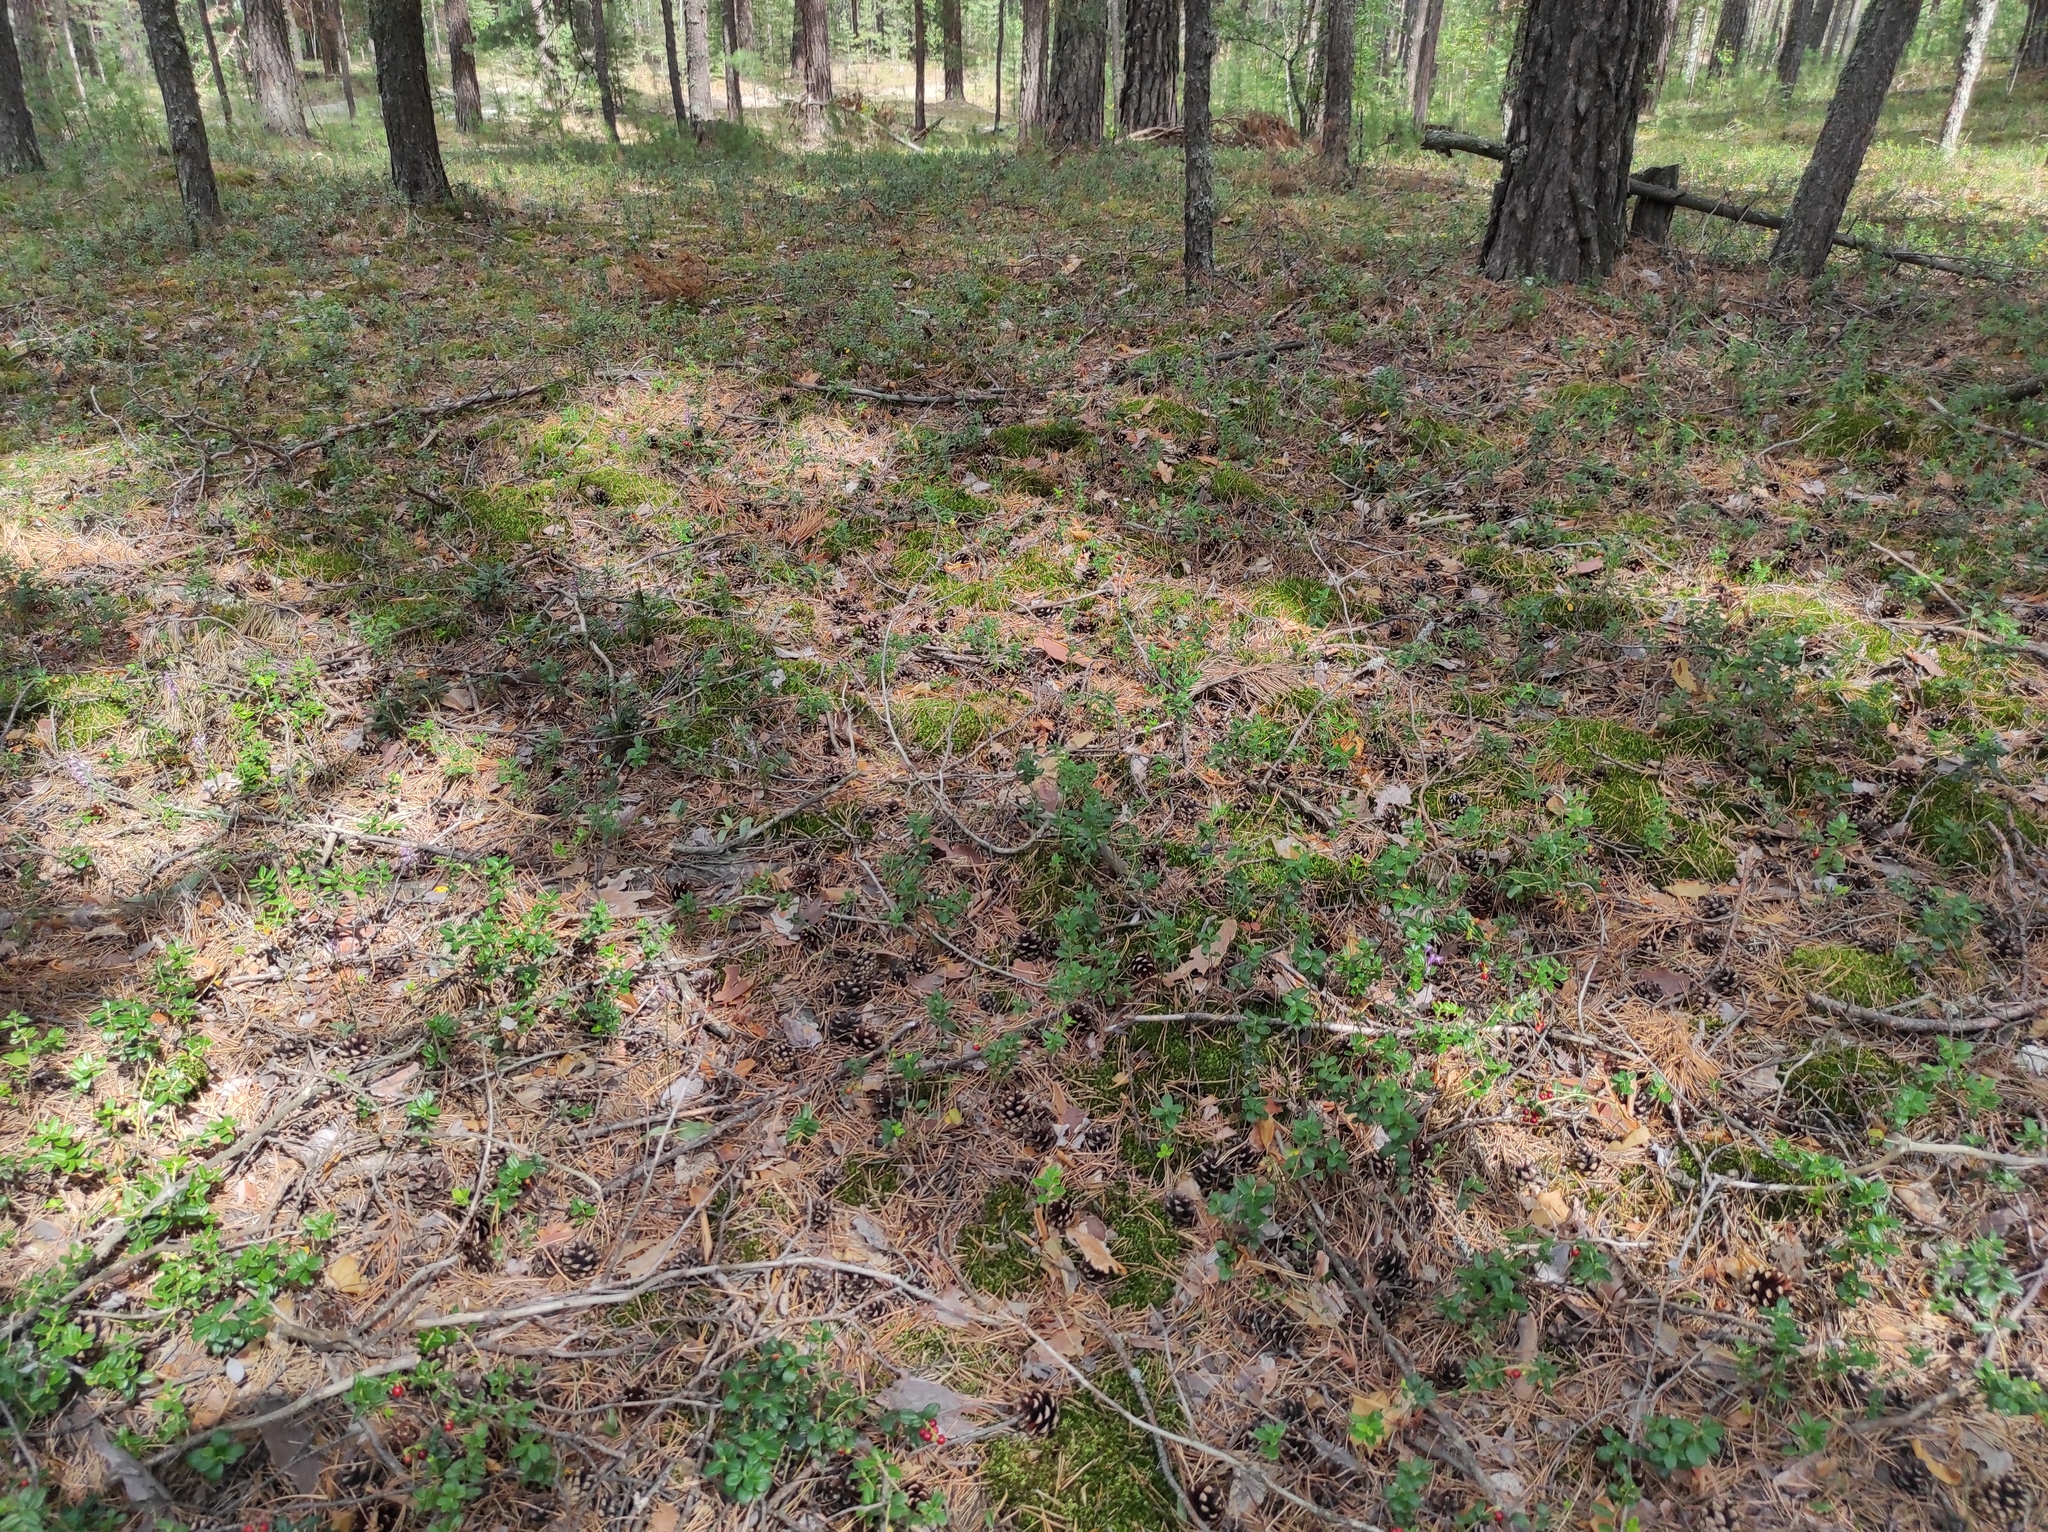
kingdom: Plantae
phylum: Tracheophyta
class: Magnoliopsida
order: Ericales
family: Ericaceae
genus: Vaccinium
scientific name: Vaccinium vitis-idaea
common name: Cowberry
